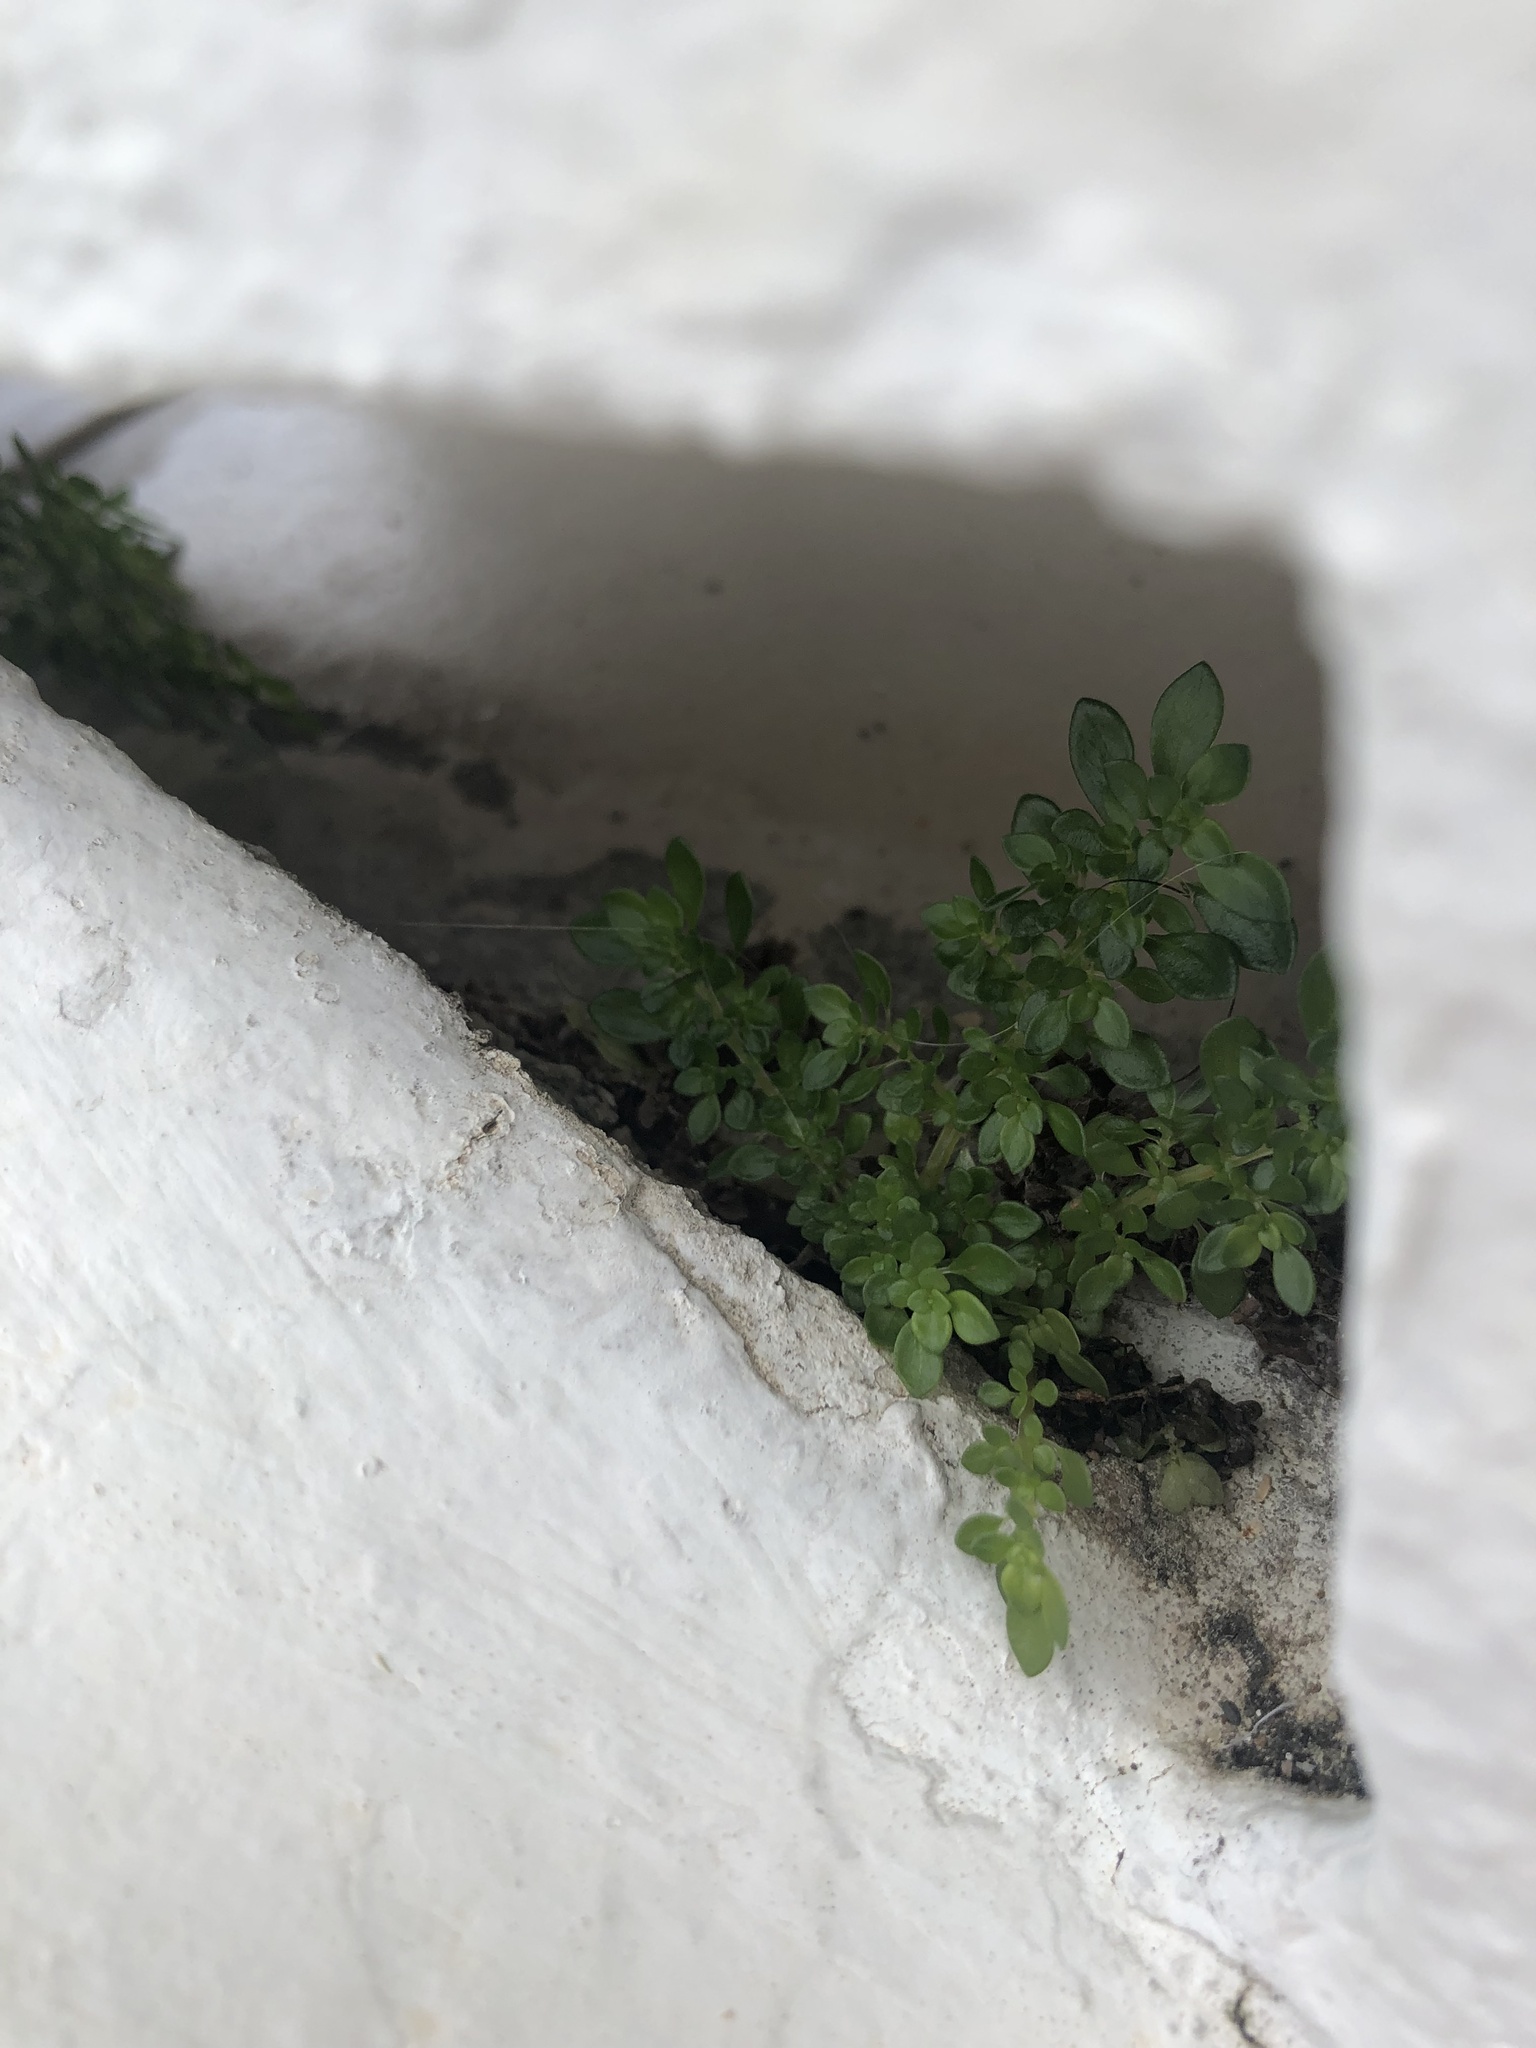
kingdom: Plantae
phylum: Tracheophyta
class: Magnoliopsida
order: Rosales
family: Urticaceae
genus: Pilea
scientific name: Pilea microphylla
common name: Artillery-plant
